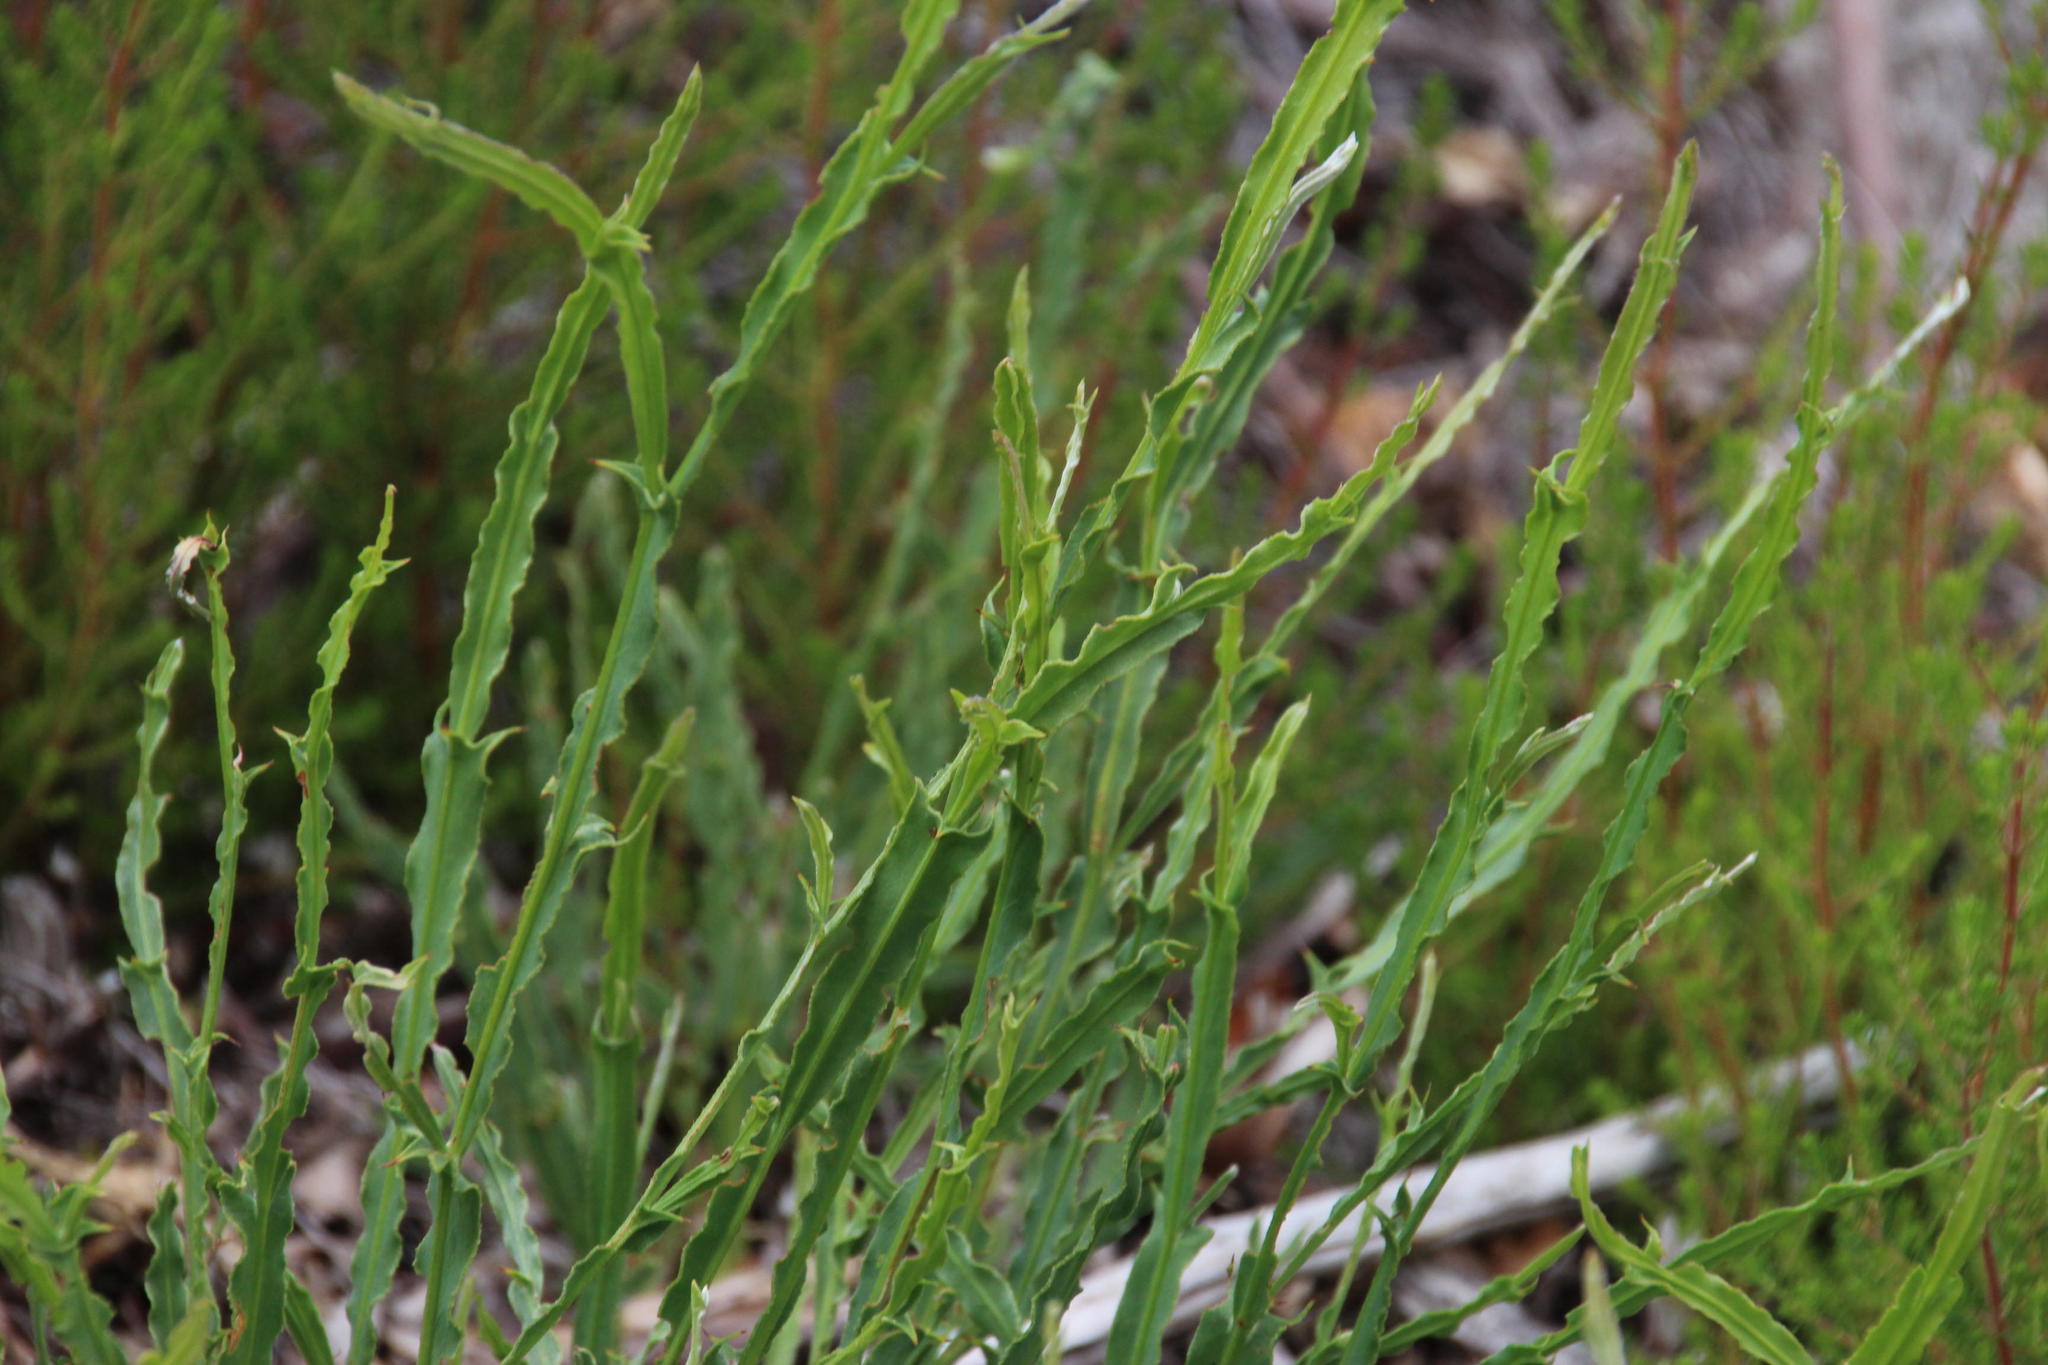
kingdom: Plantae
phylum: Tracheophyta
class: Magnoliopsida
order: Fabales
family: Fabaceae
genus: Genista
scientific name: Genista tridentata
